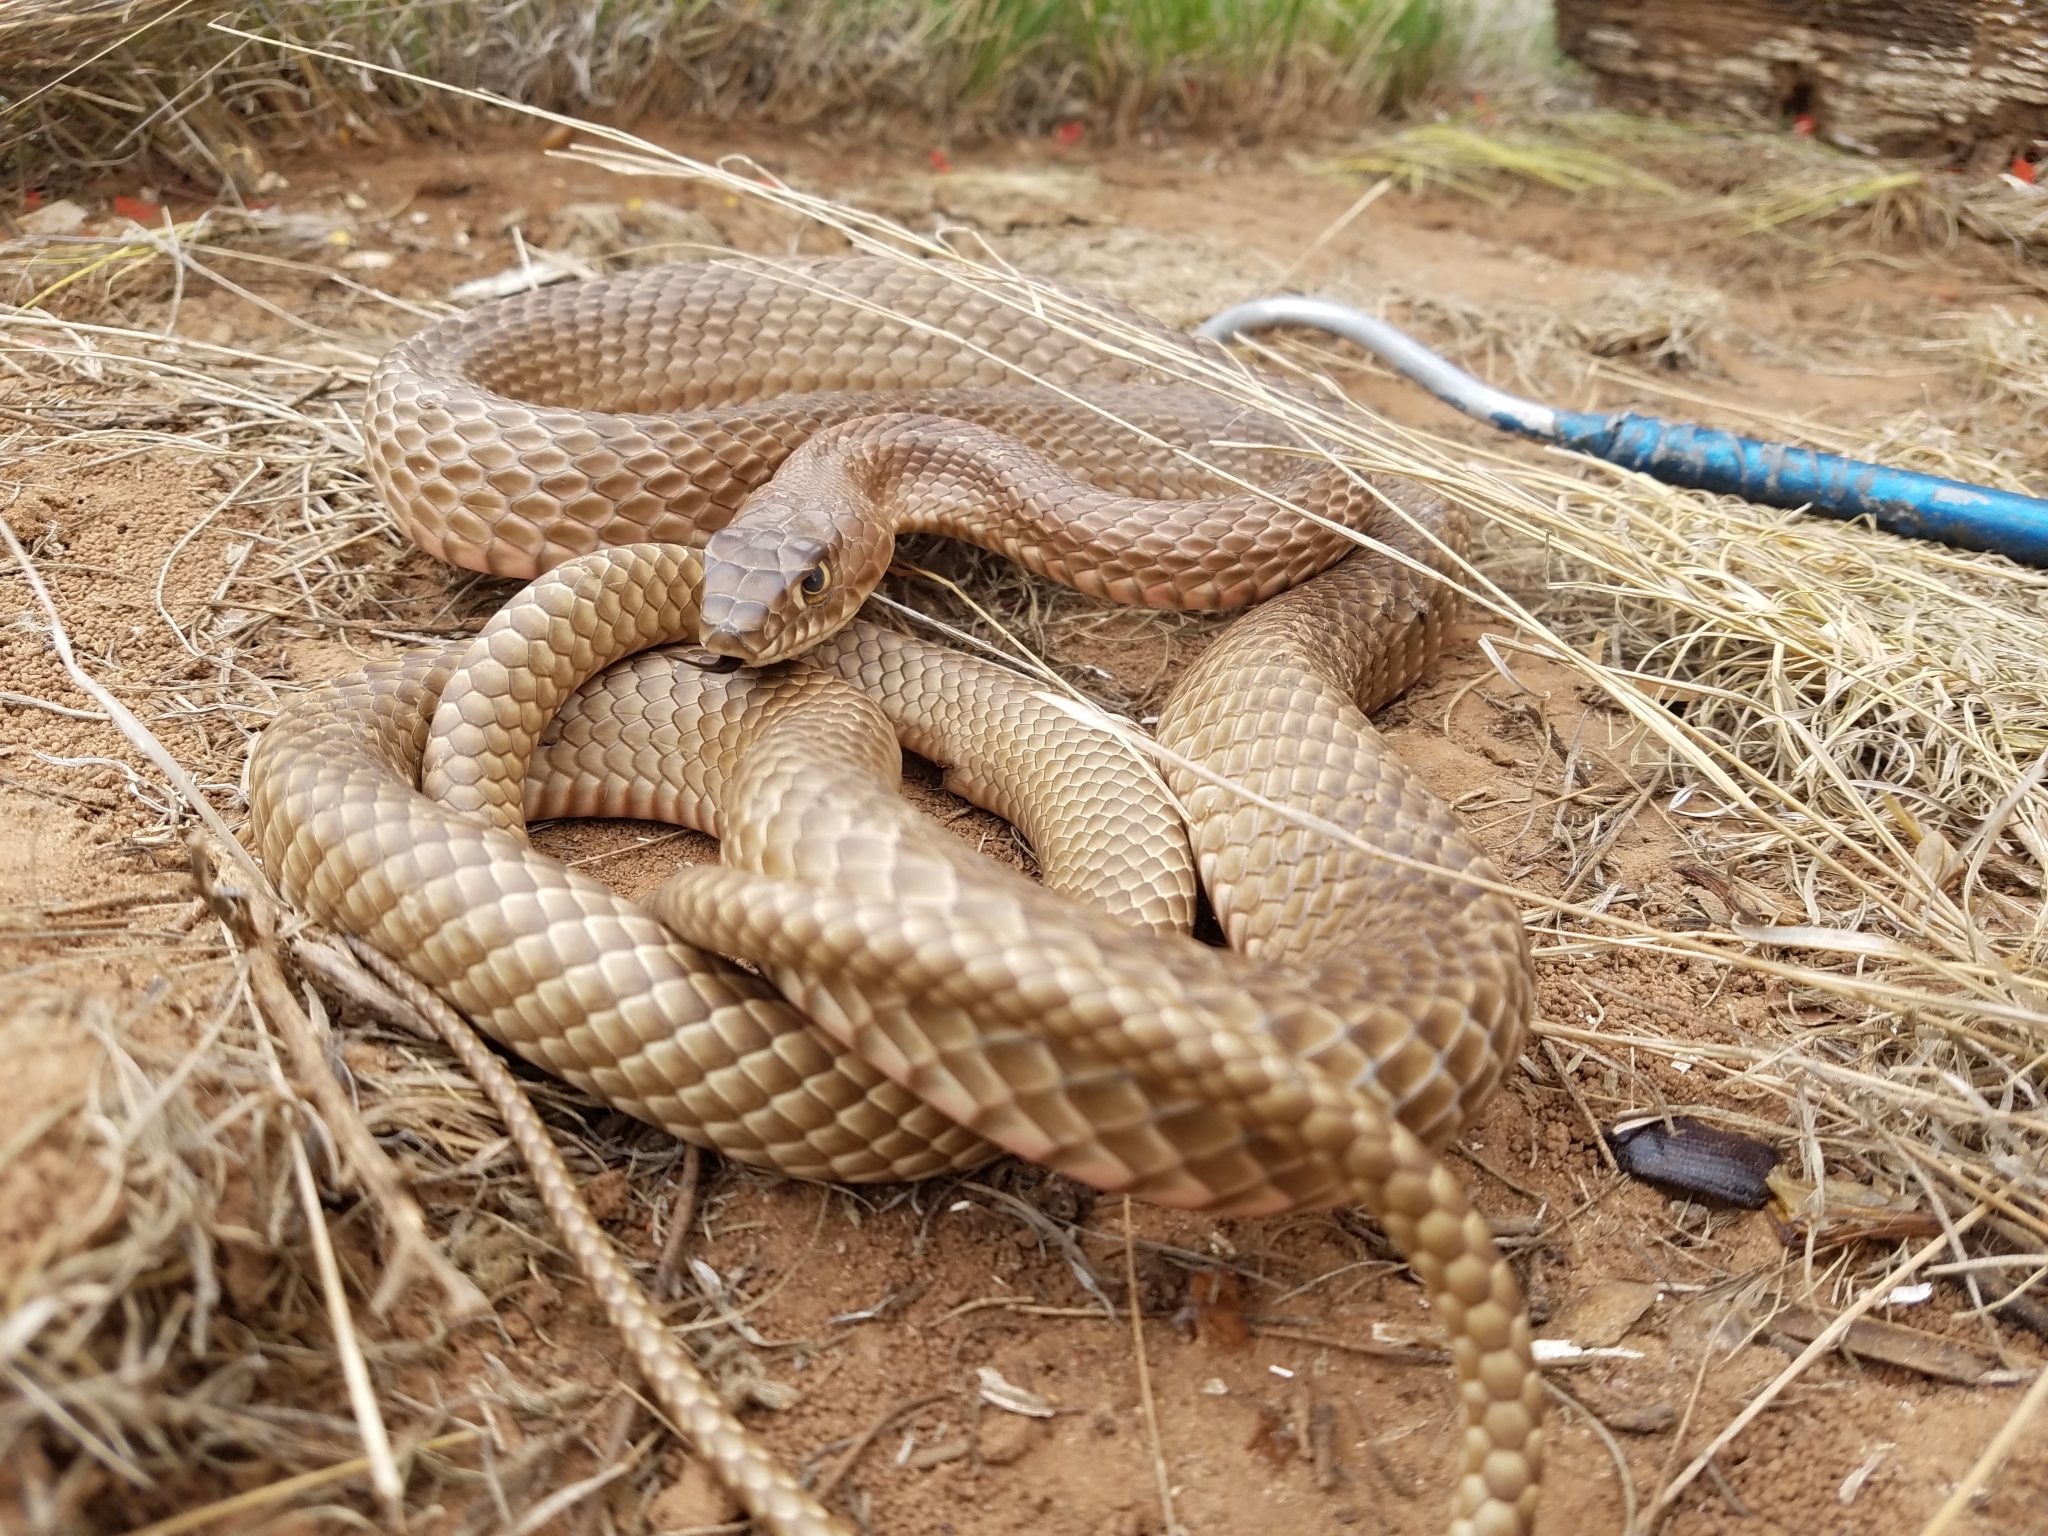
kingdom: Animalia
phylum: Chordata
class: Squamata
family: Colubridae
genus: Masticophis
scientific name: Masticophis flagellum
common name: Coachwhip
